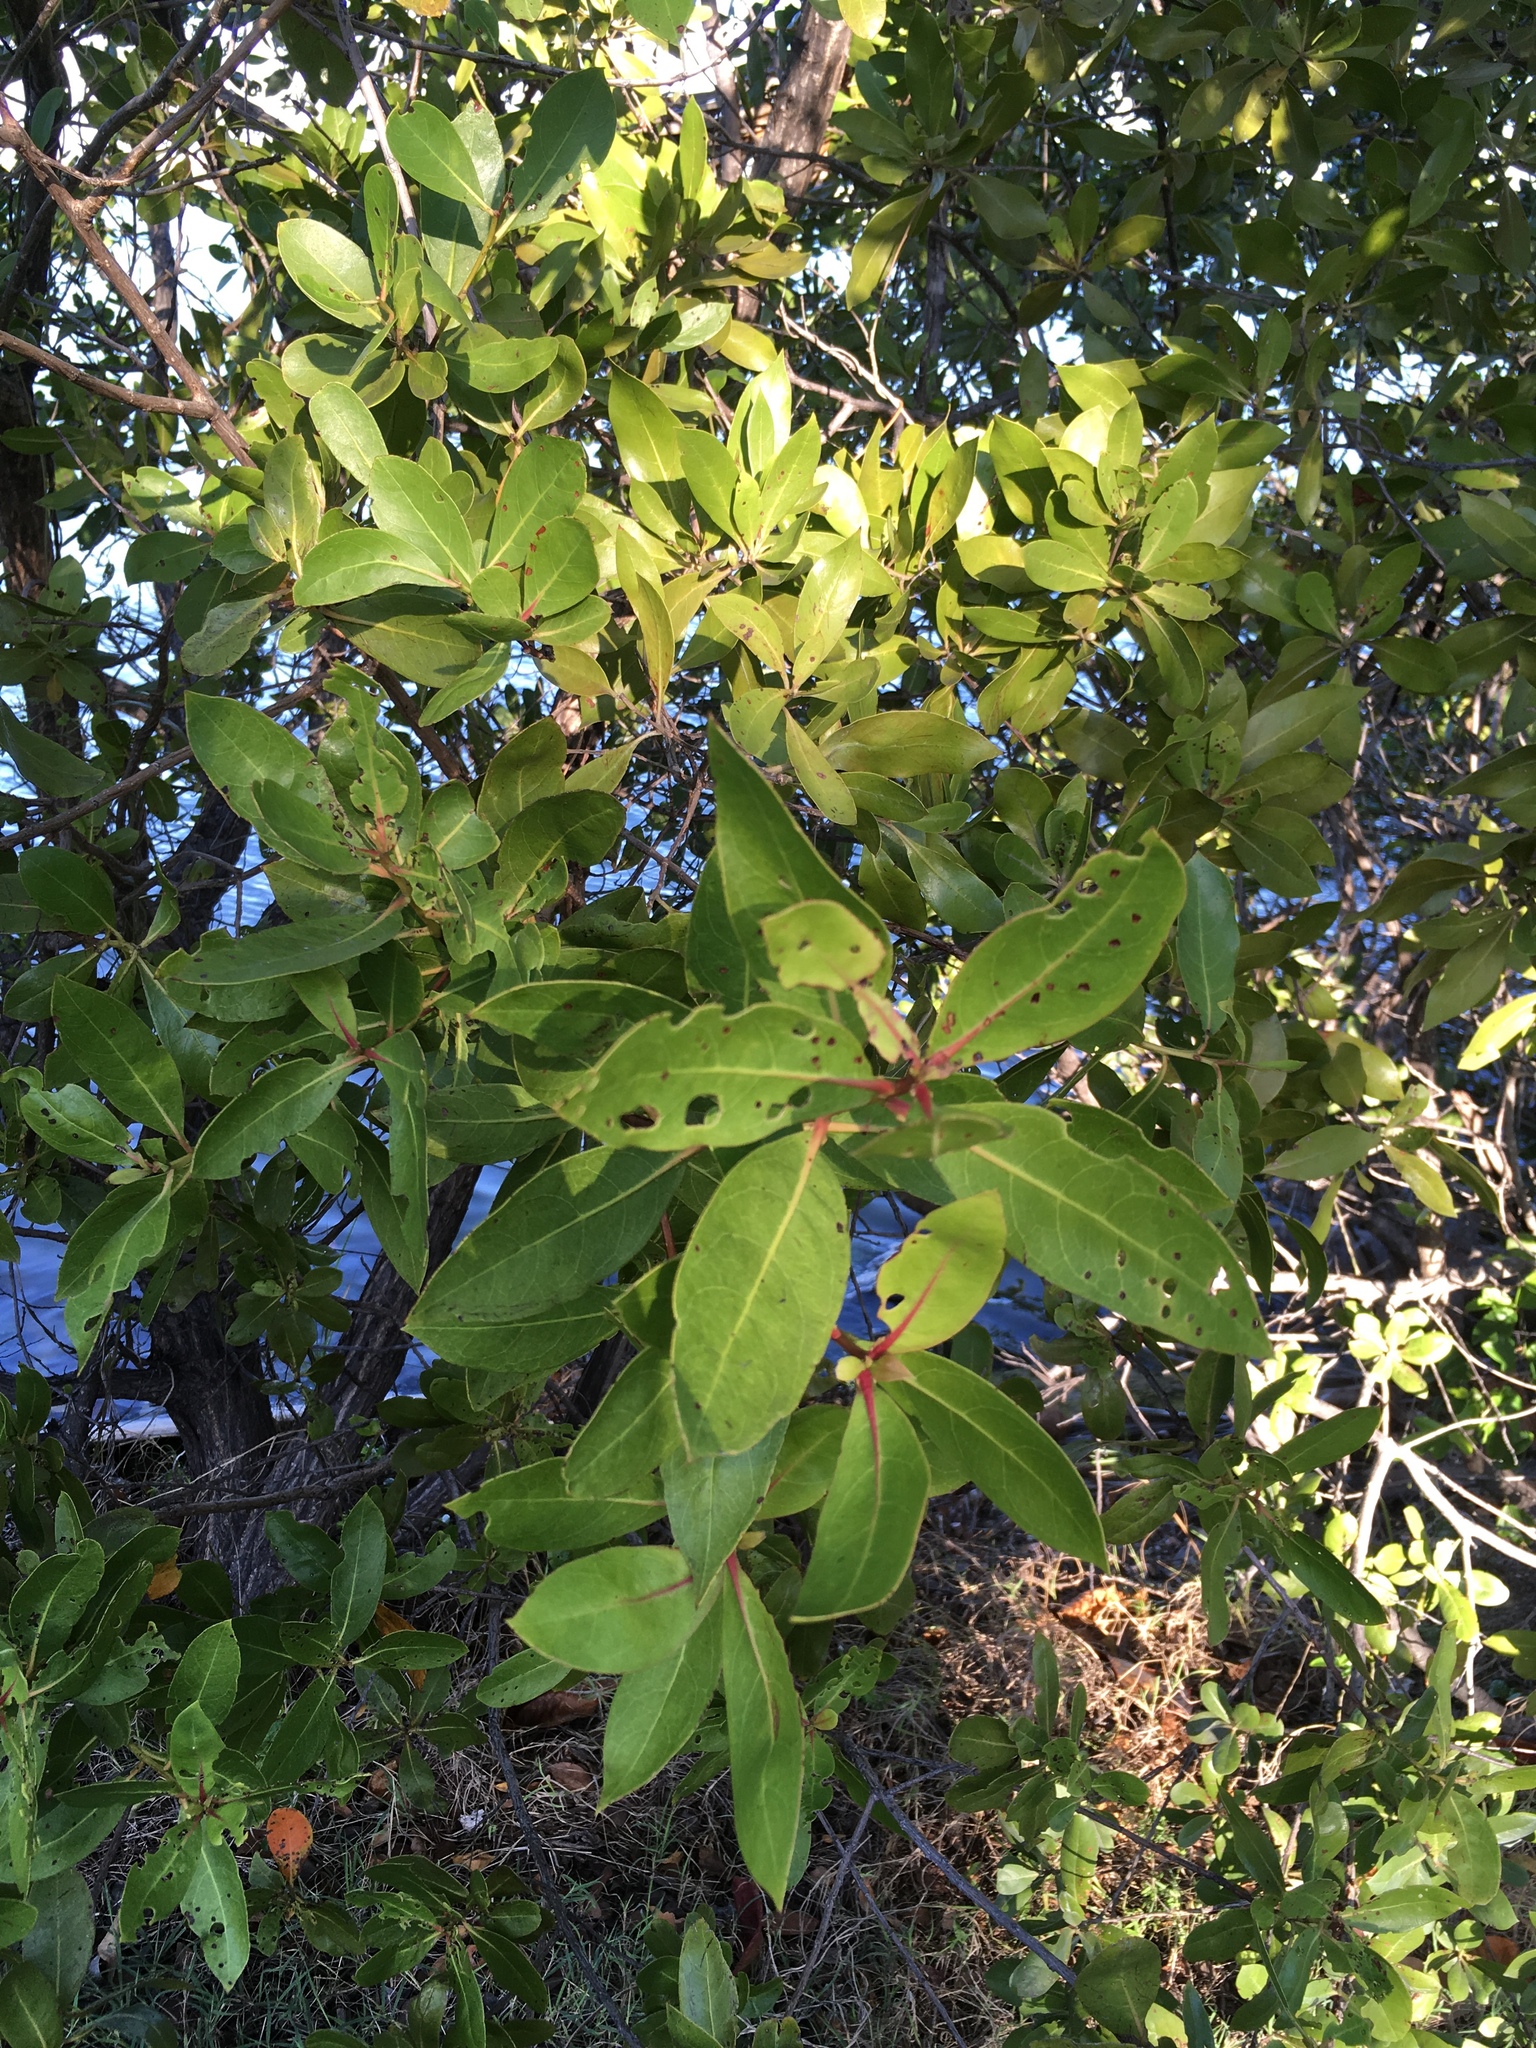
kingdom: Plantae
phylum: Tracheophyta
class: Magnoliopsida
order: Myrtales
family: Combretaceae
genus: Laguncularia
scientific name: Laguncularia racemosa
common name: White mangrove
